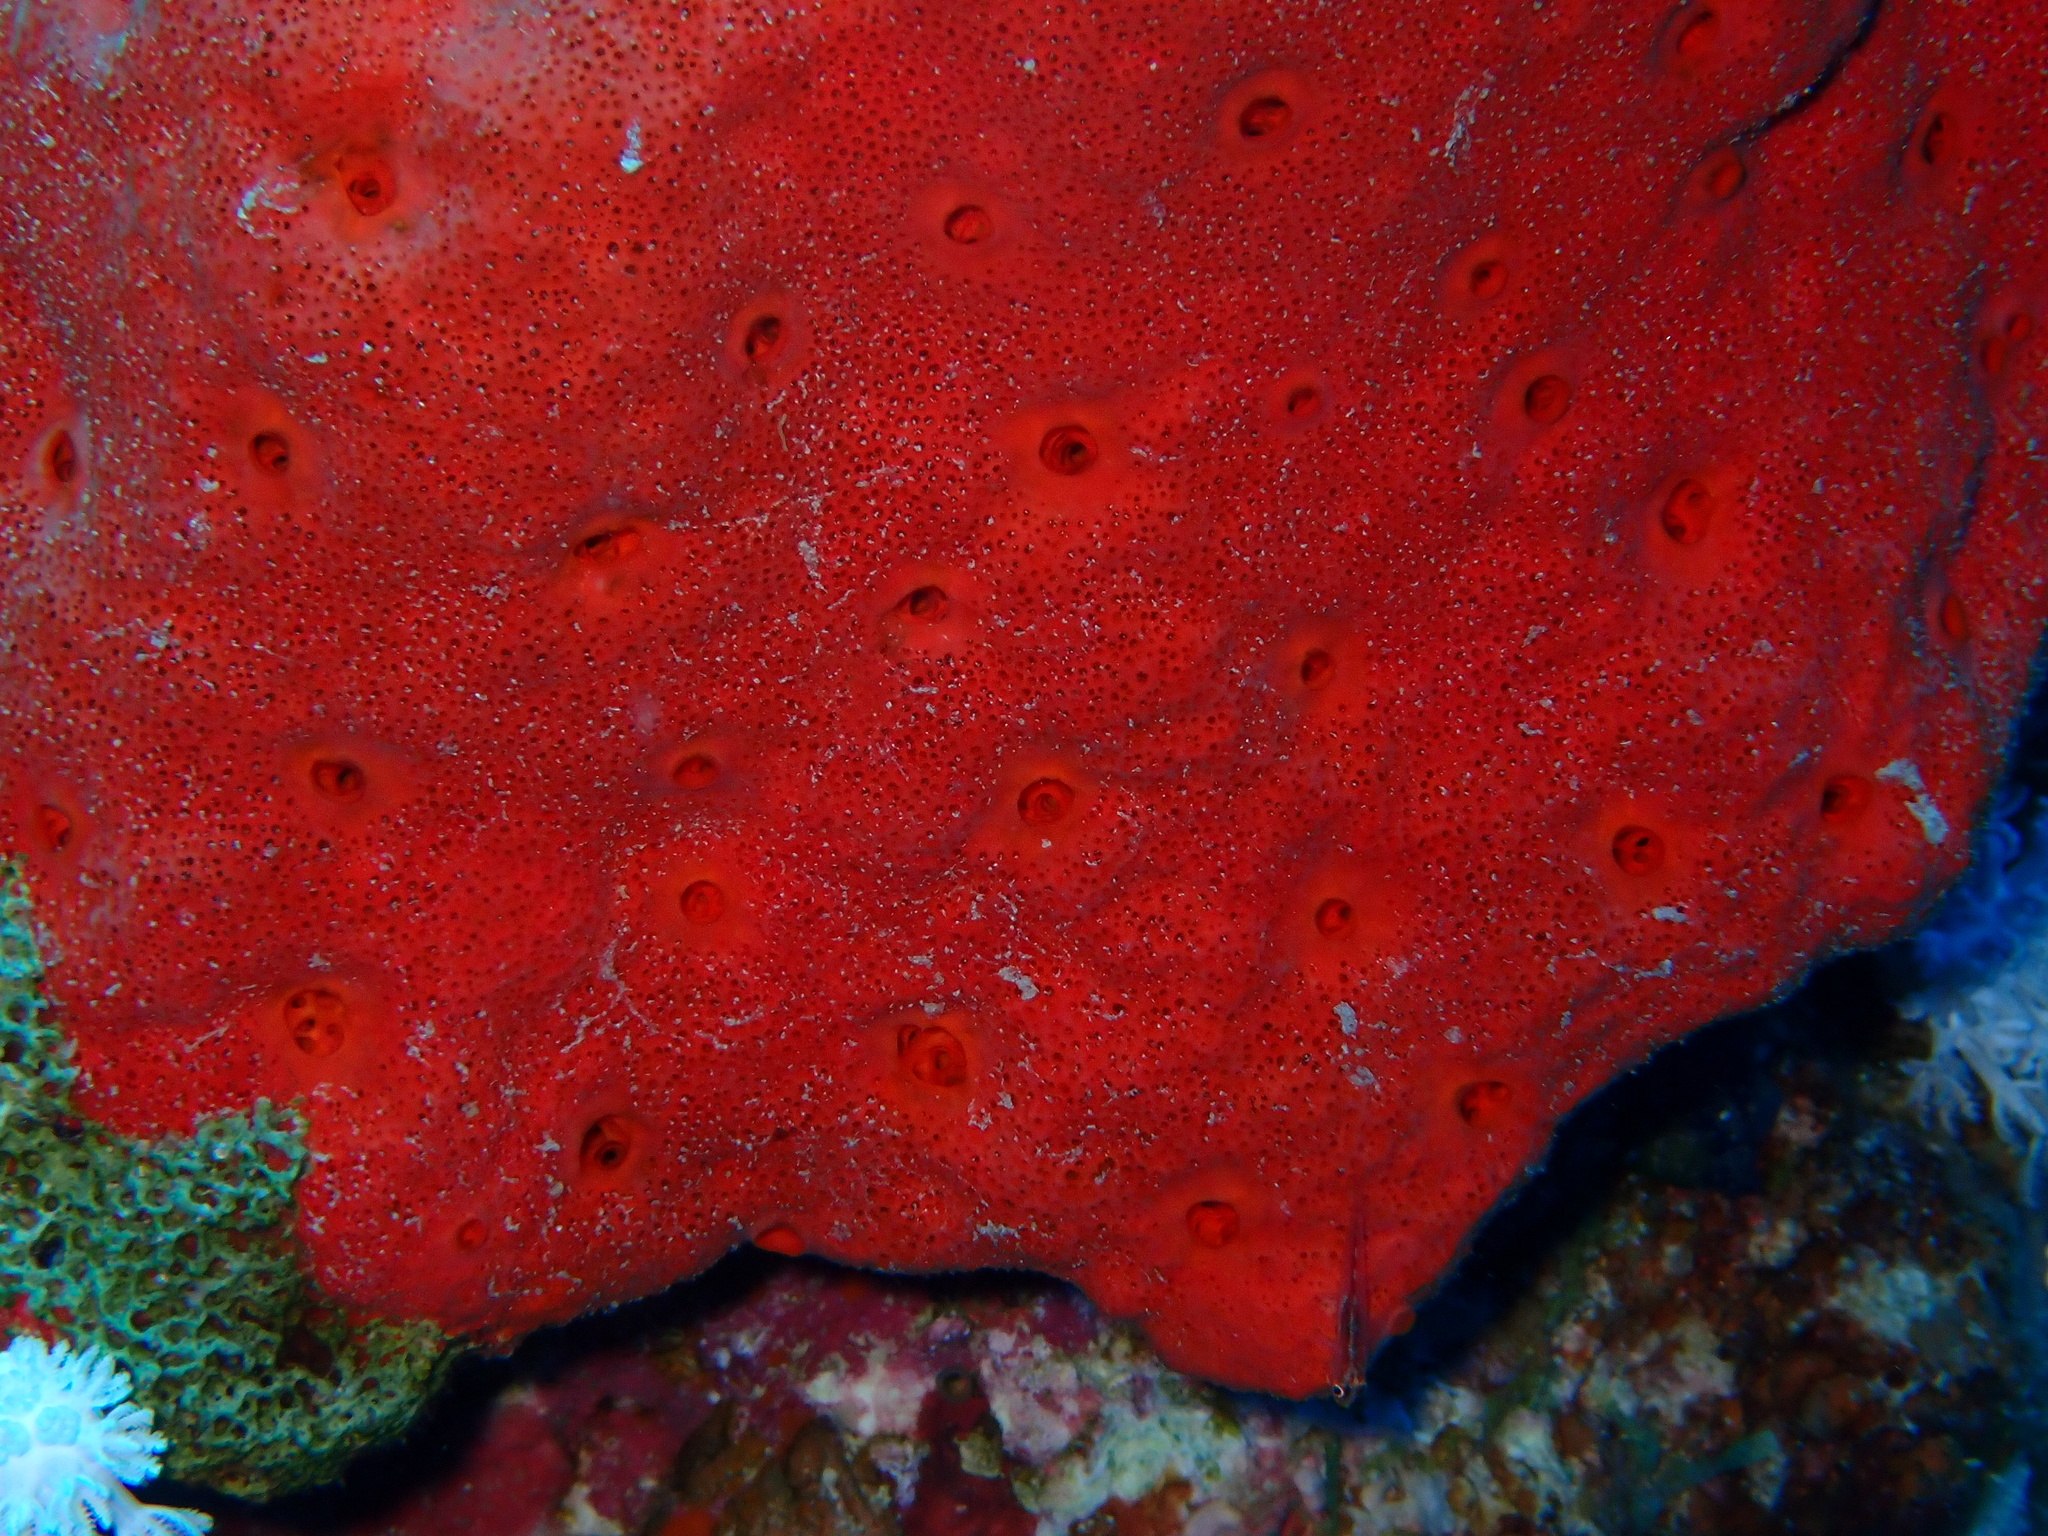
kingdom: Animalia
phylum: Porifera
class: Demospongiae
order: Clionaida
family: Clionaidae
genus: Pione
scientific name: Pione mussae
